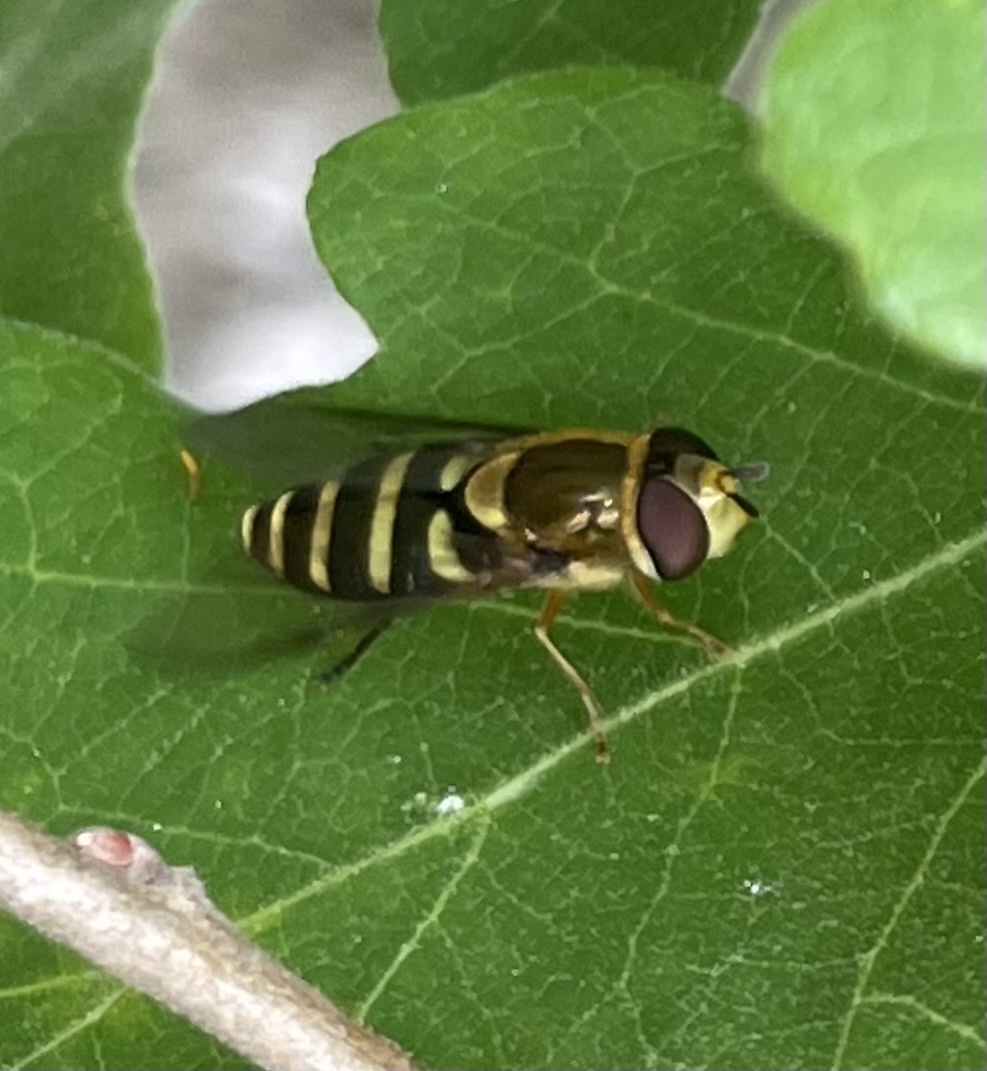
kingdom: Animalia
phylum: Arthropoda
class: Insecta
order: Diptera
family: Syrphidae
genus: Syrphus
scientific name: Syrphus opinator
